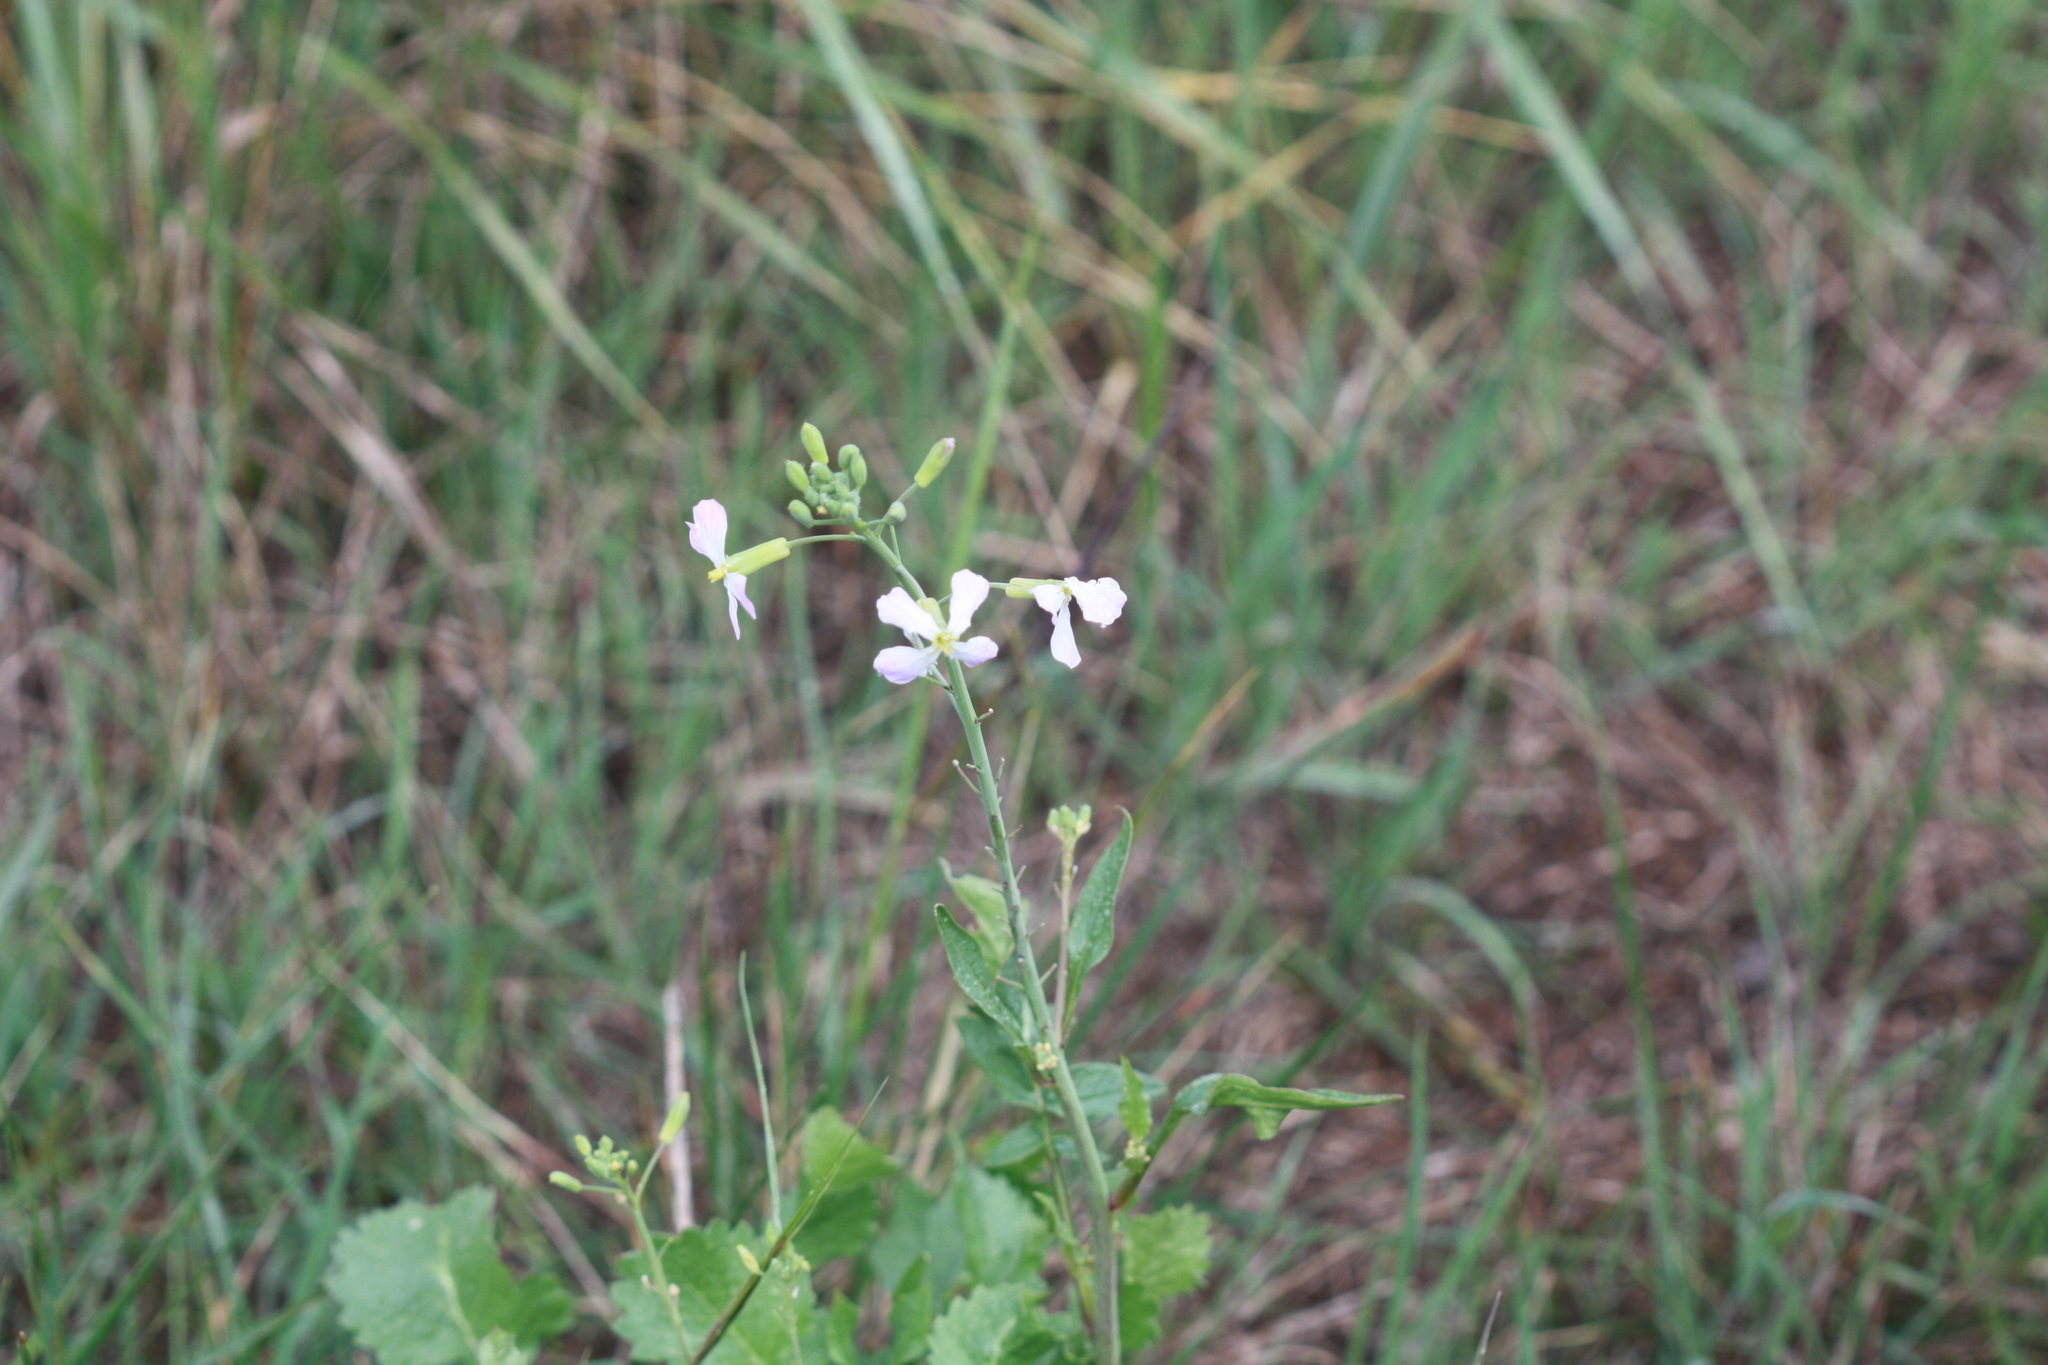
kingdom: Plantae
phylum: Tracheophyta
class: Magnoliopsida
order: Brassicales
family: Brassicaceae
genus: Raphanus
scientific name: Raphanus sativus
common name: Cultivated radish
